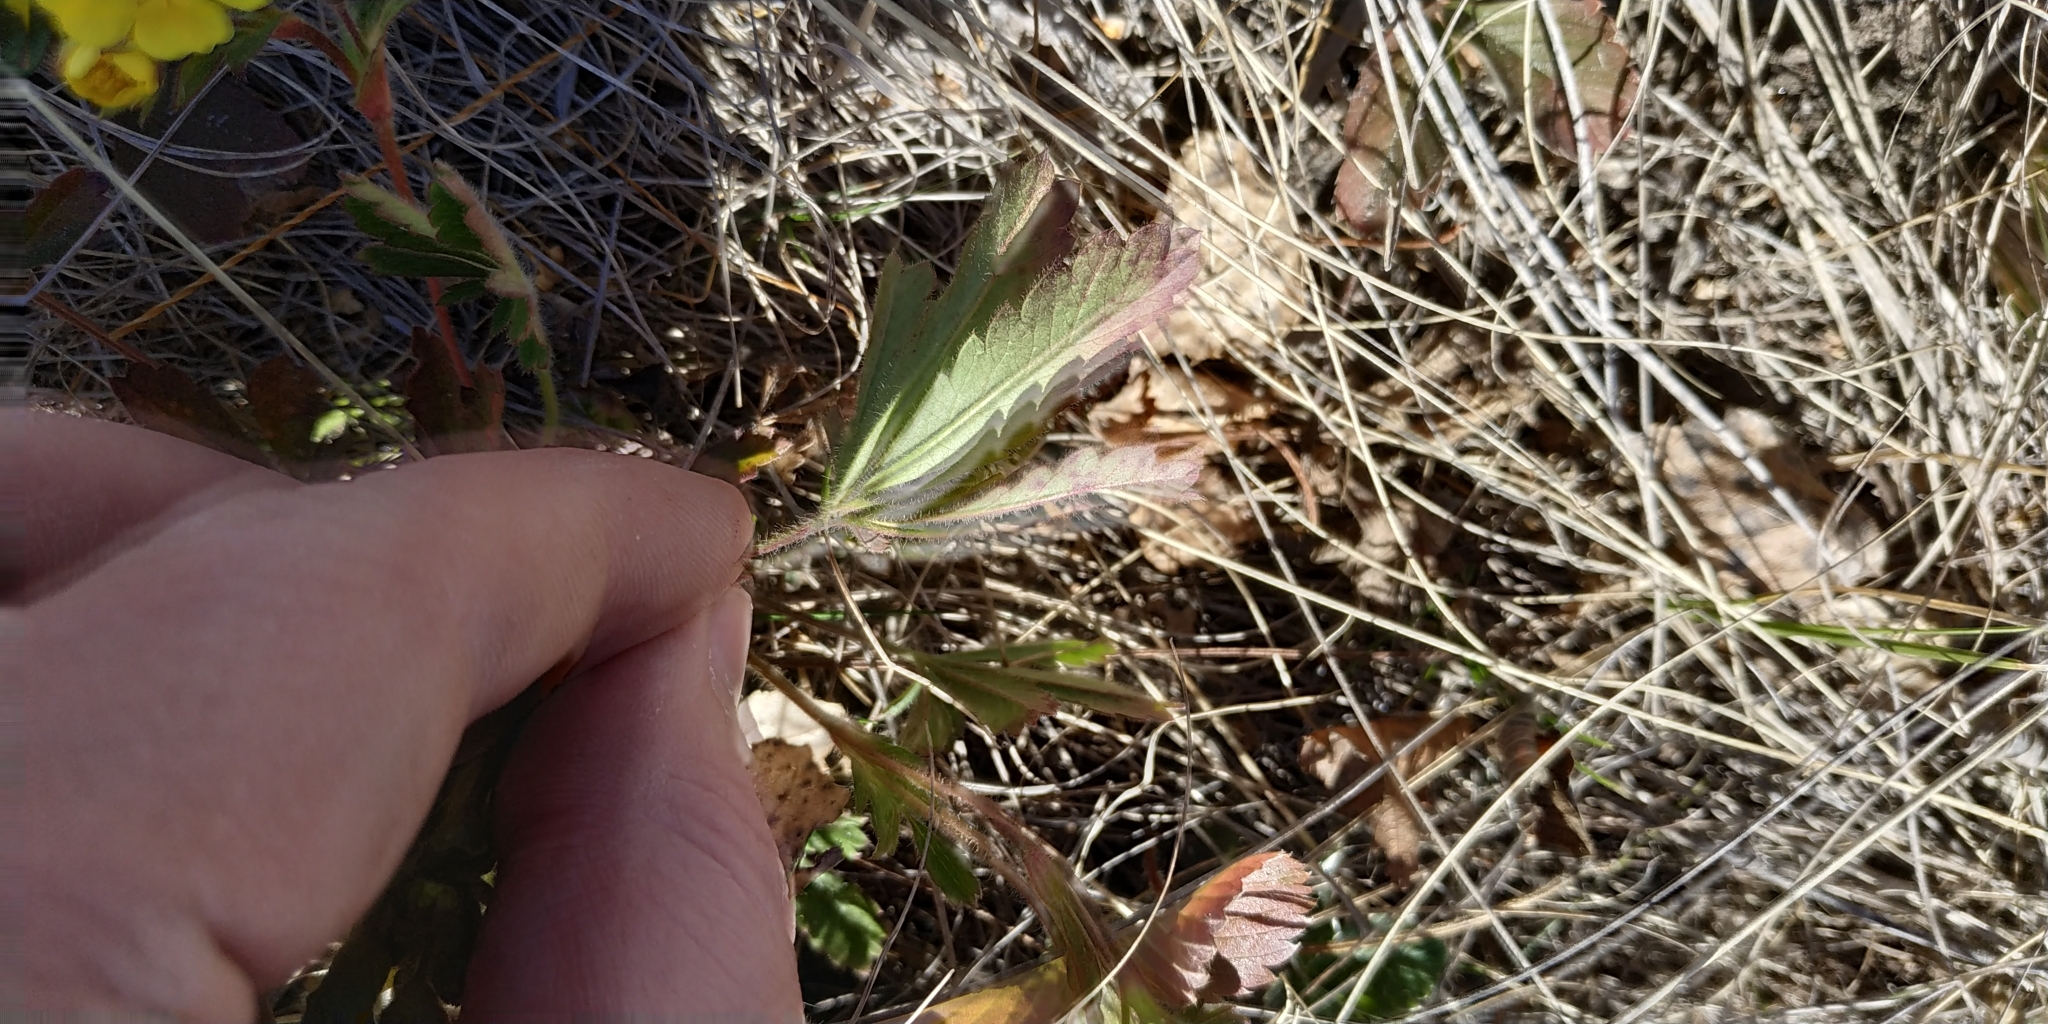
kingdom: Plantae
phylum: Tracheophyta
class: Magnoliopsida
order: Rosales
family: Rosaceae
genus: Potentilla
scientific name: Potentilla humifusa
